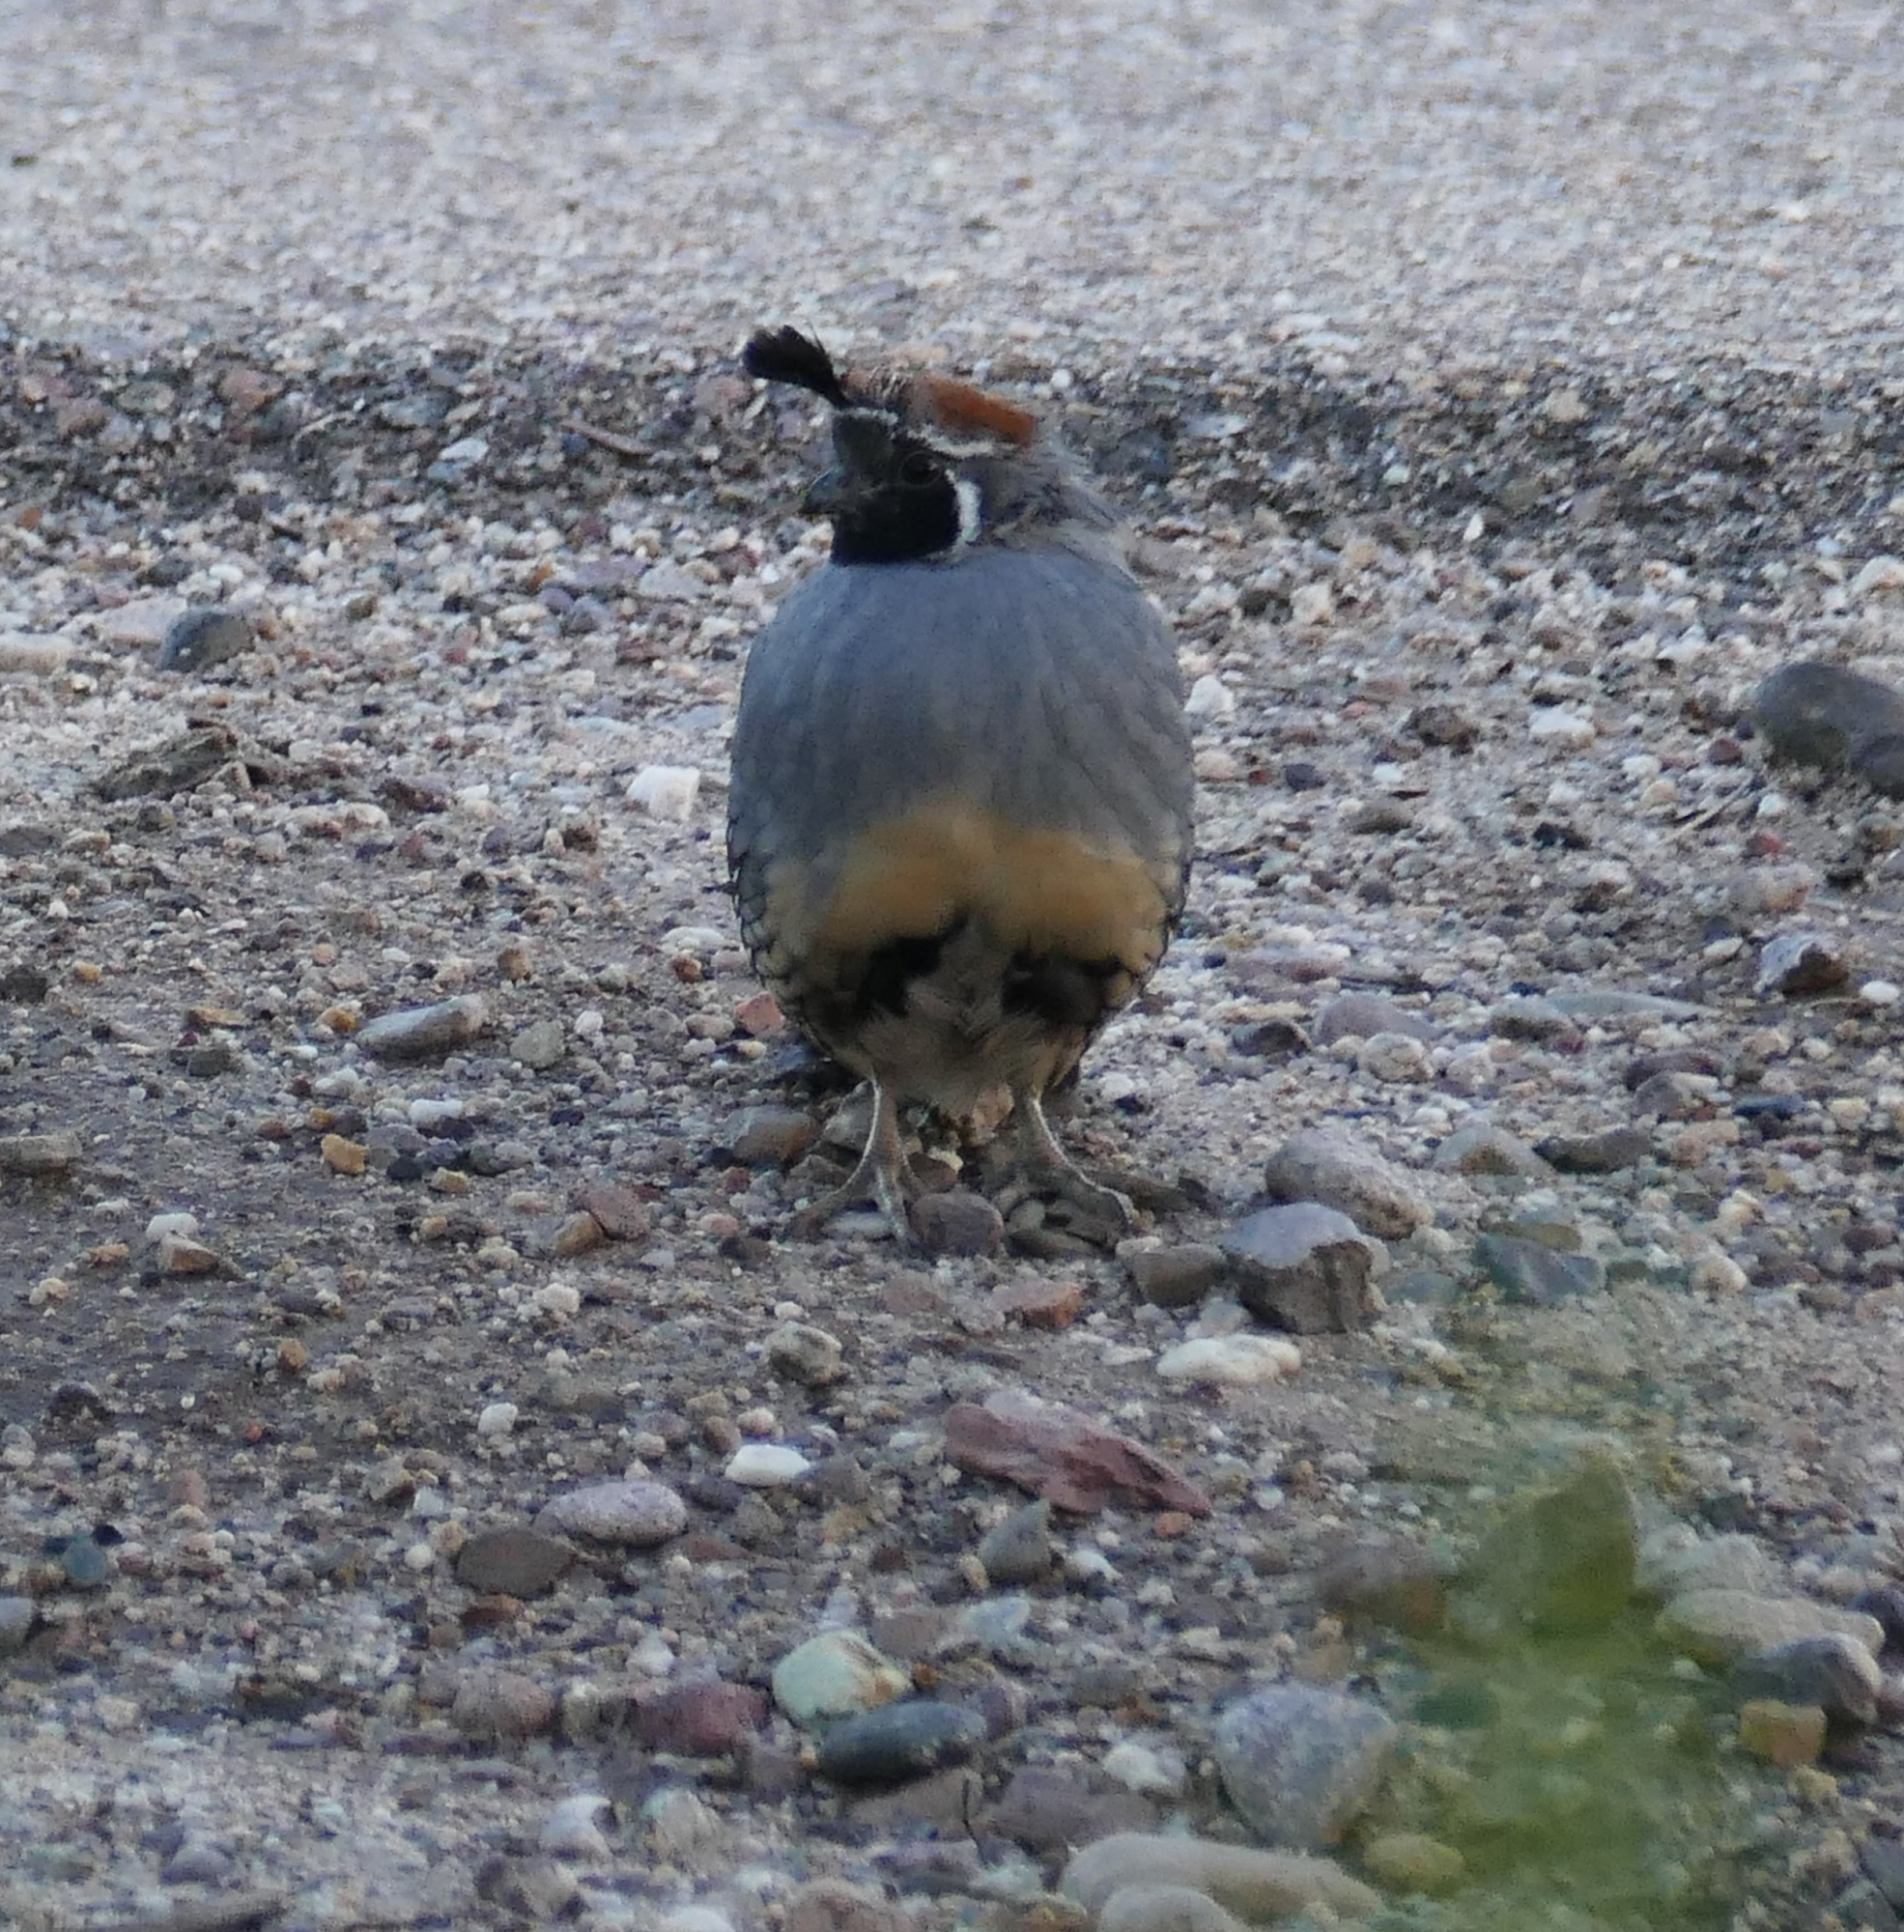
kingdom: Animalia
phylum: Chordata
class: Aves
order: Galliformes
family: Odontophoridae
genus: Callipepla
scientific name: Callipepla gambelii
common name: Gambel's quail
